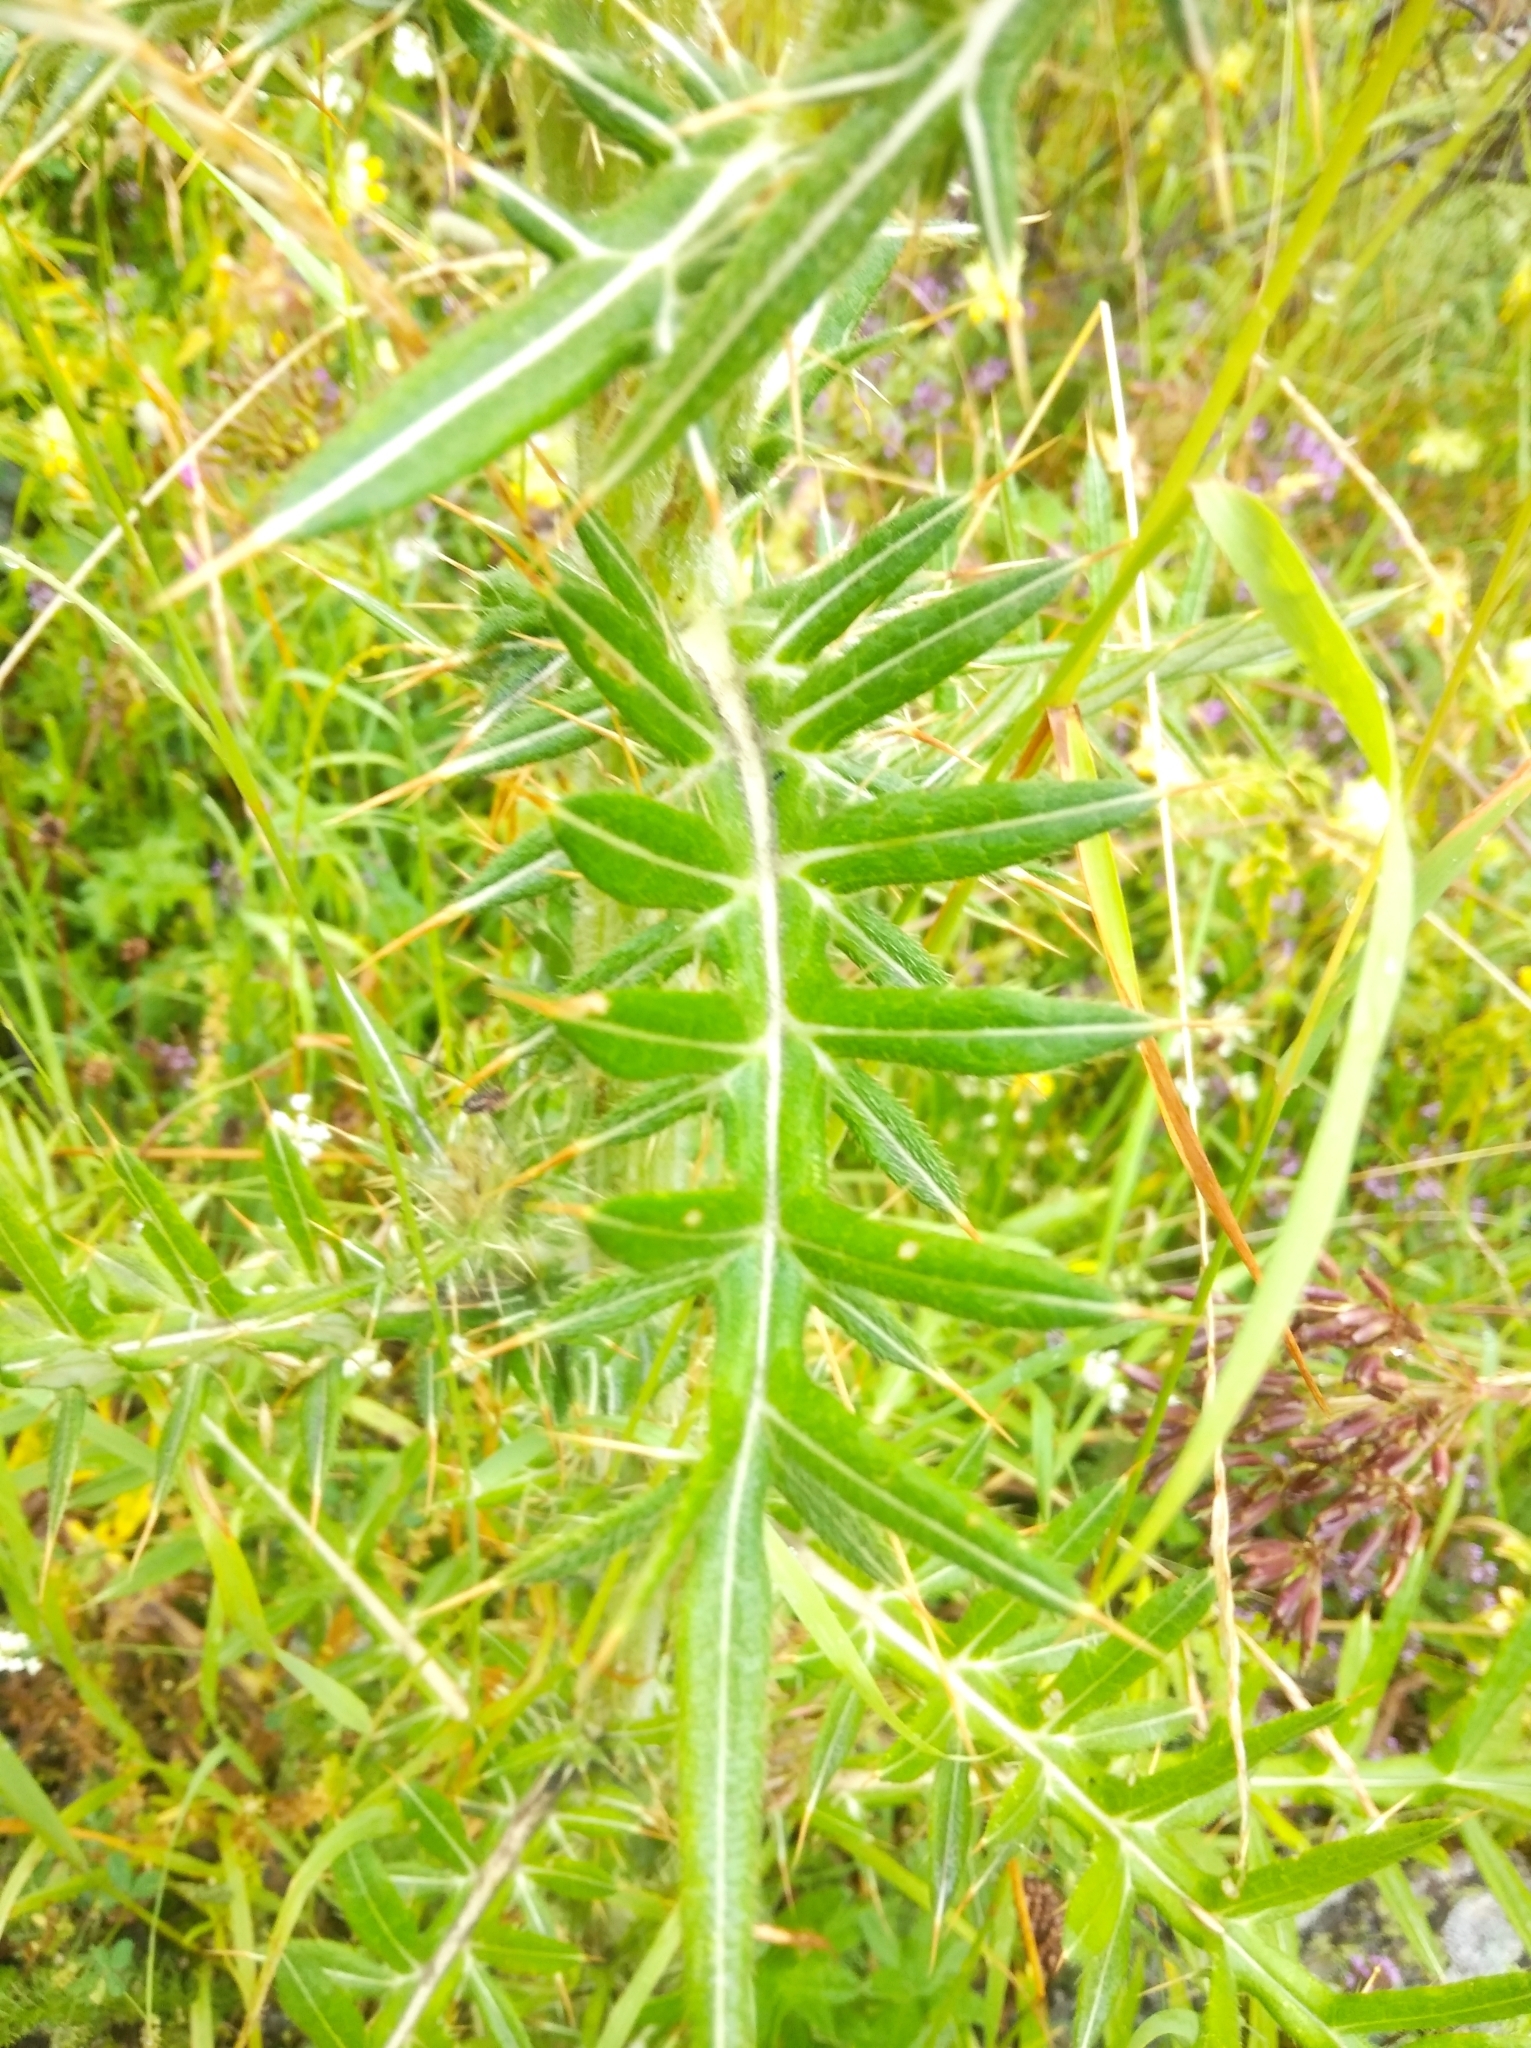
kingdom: Plantae
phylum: Tracheophyta
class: Magnoliopsida
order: Asterales
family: Asteraceae
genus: Lophiolepis
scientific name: Lophiolepis eriophora
